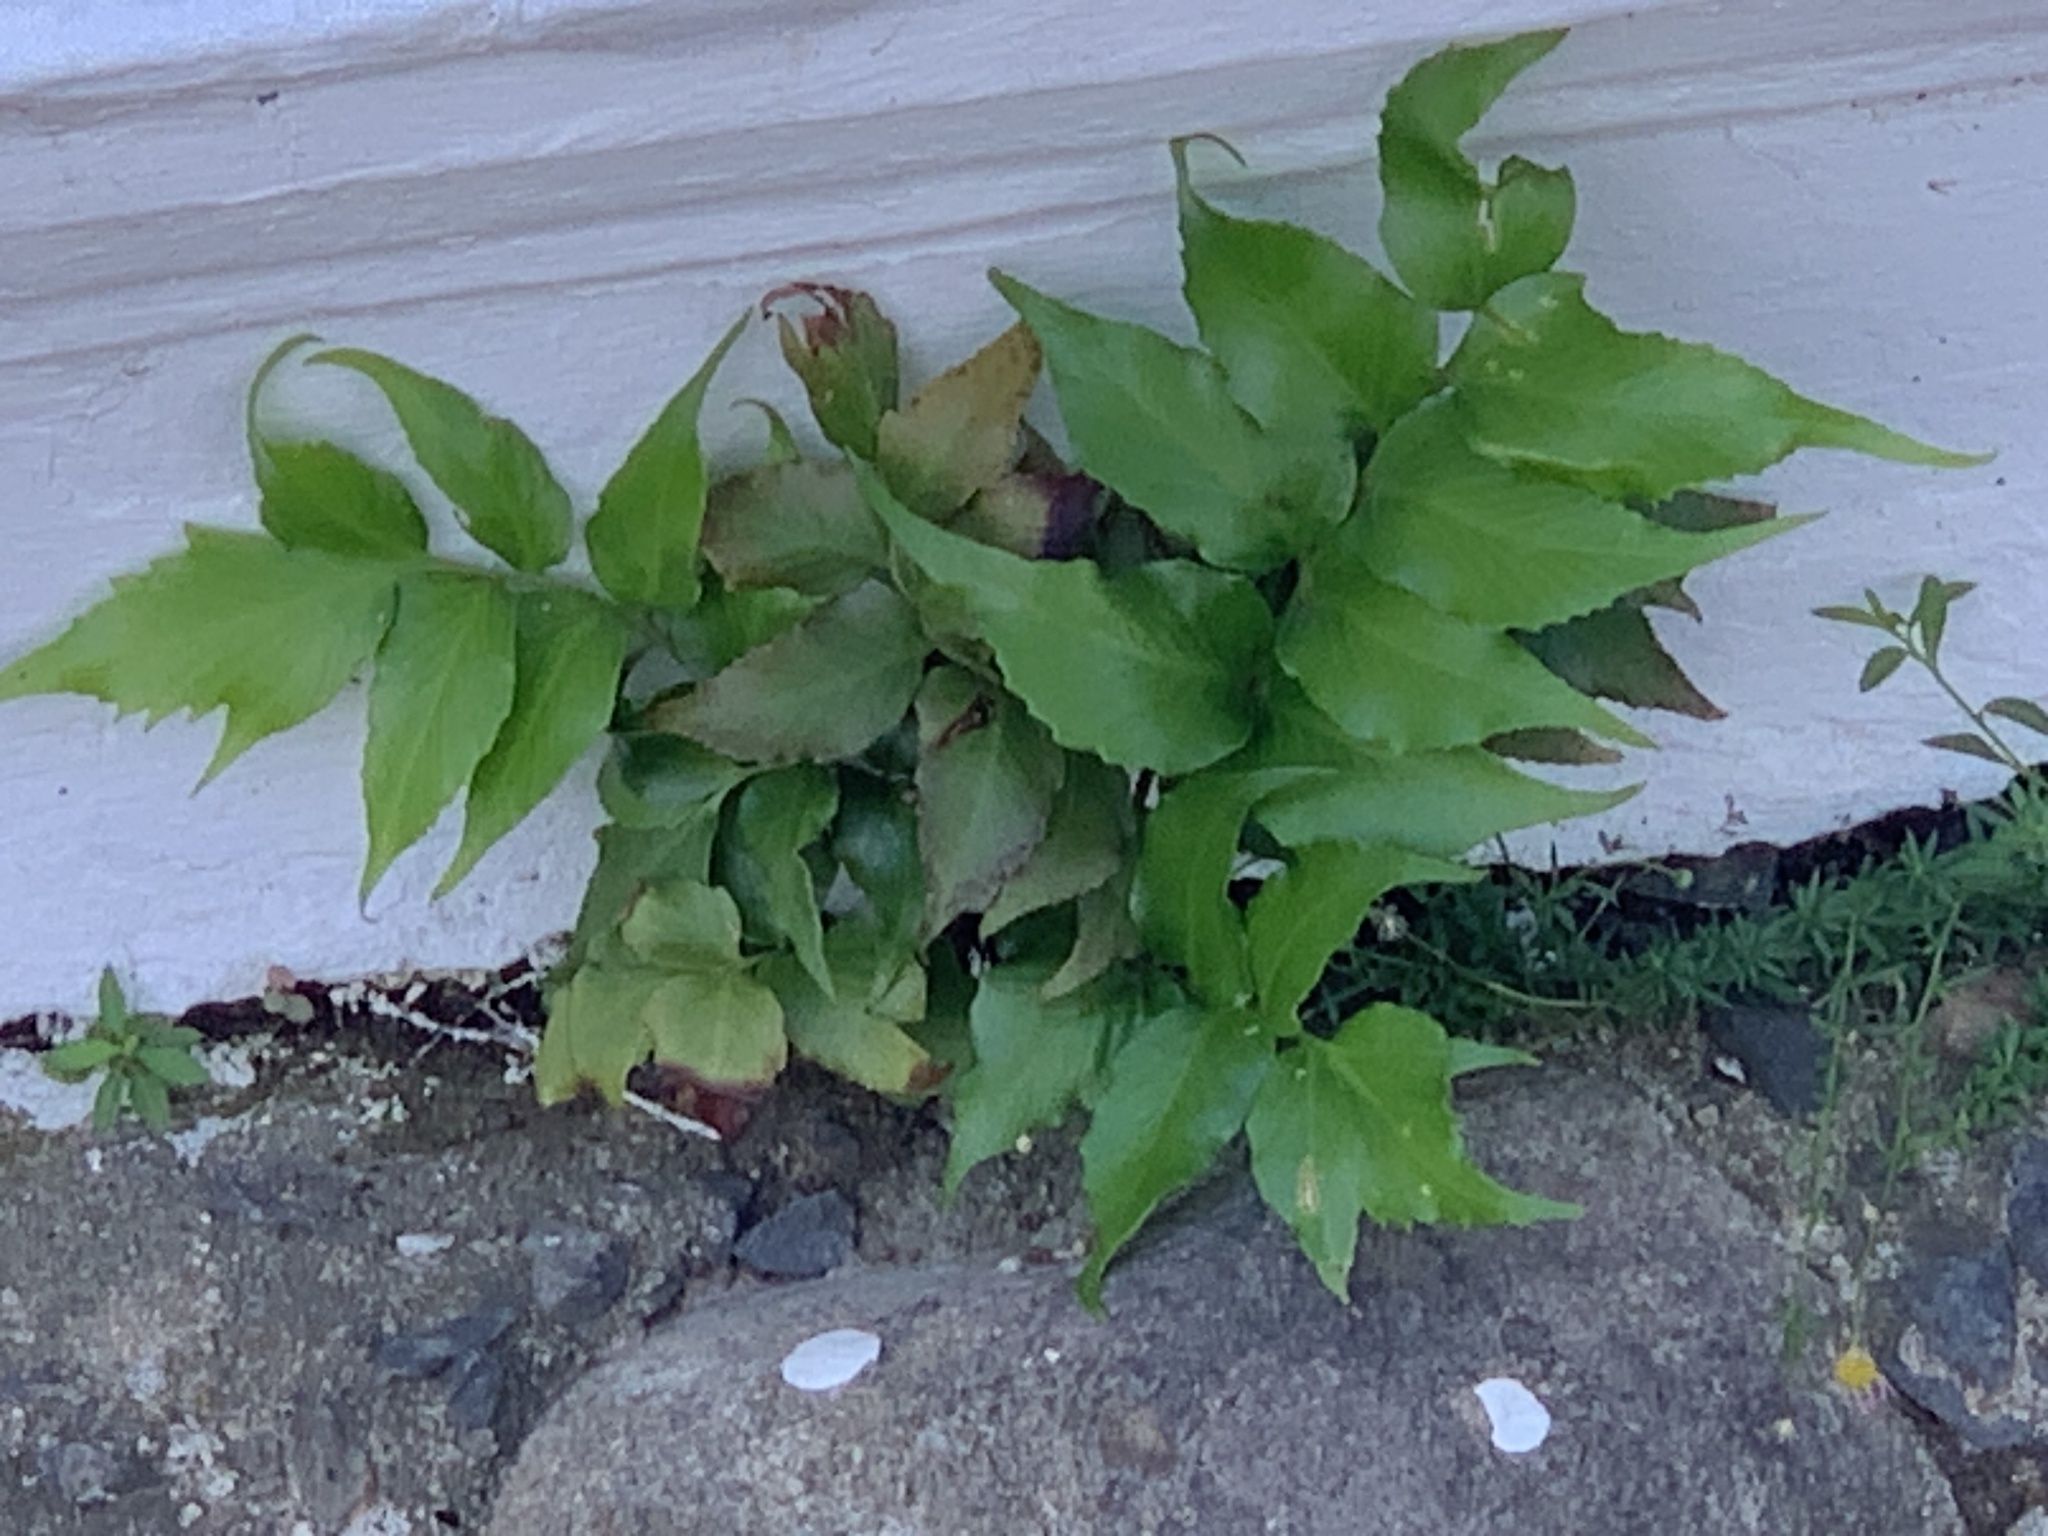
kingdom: Plantae
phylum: Tracheophyta
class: Polypodiopsida
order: Polypodiales
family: Dryopteridaceae
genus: Cyrtomium
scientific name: Cyrtomium falcatum
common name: House holly-fern
